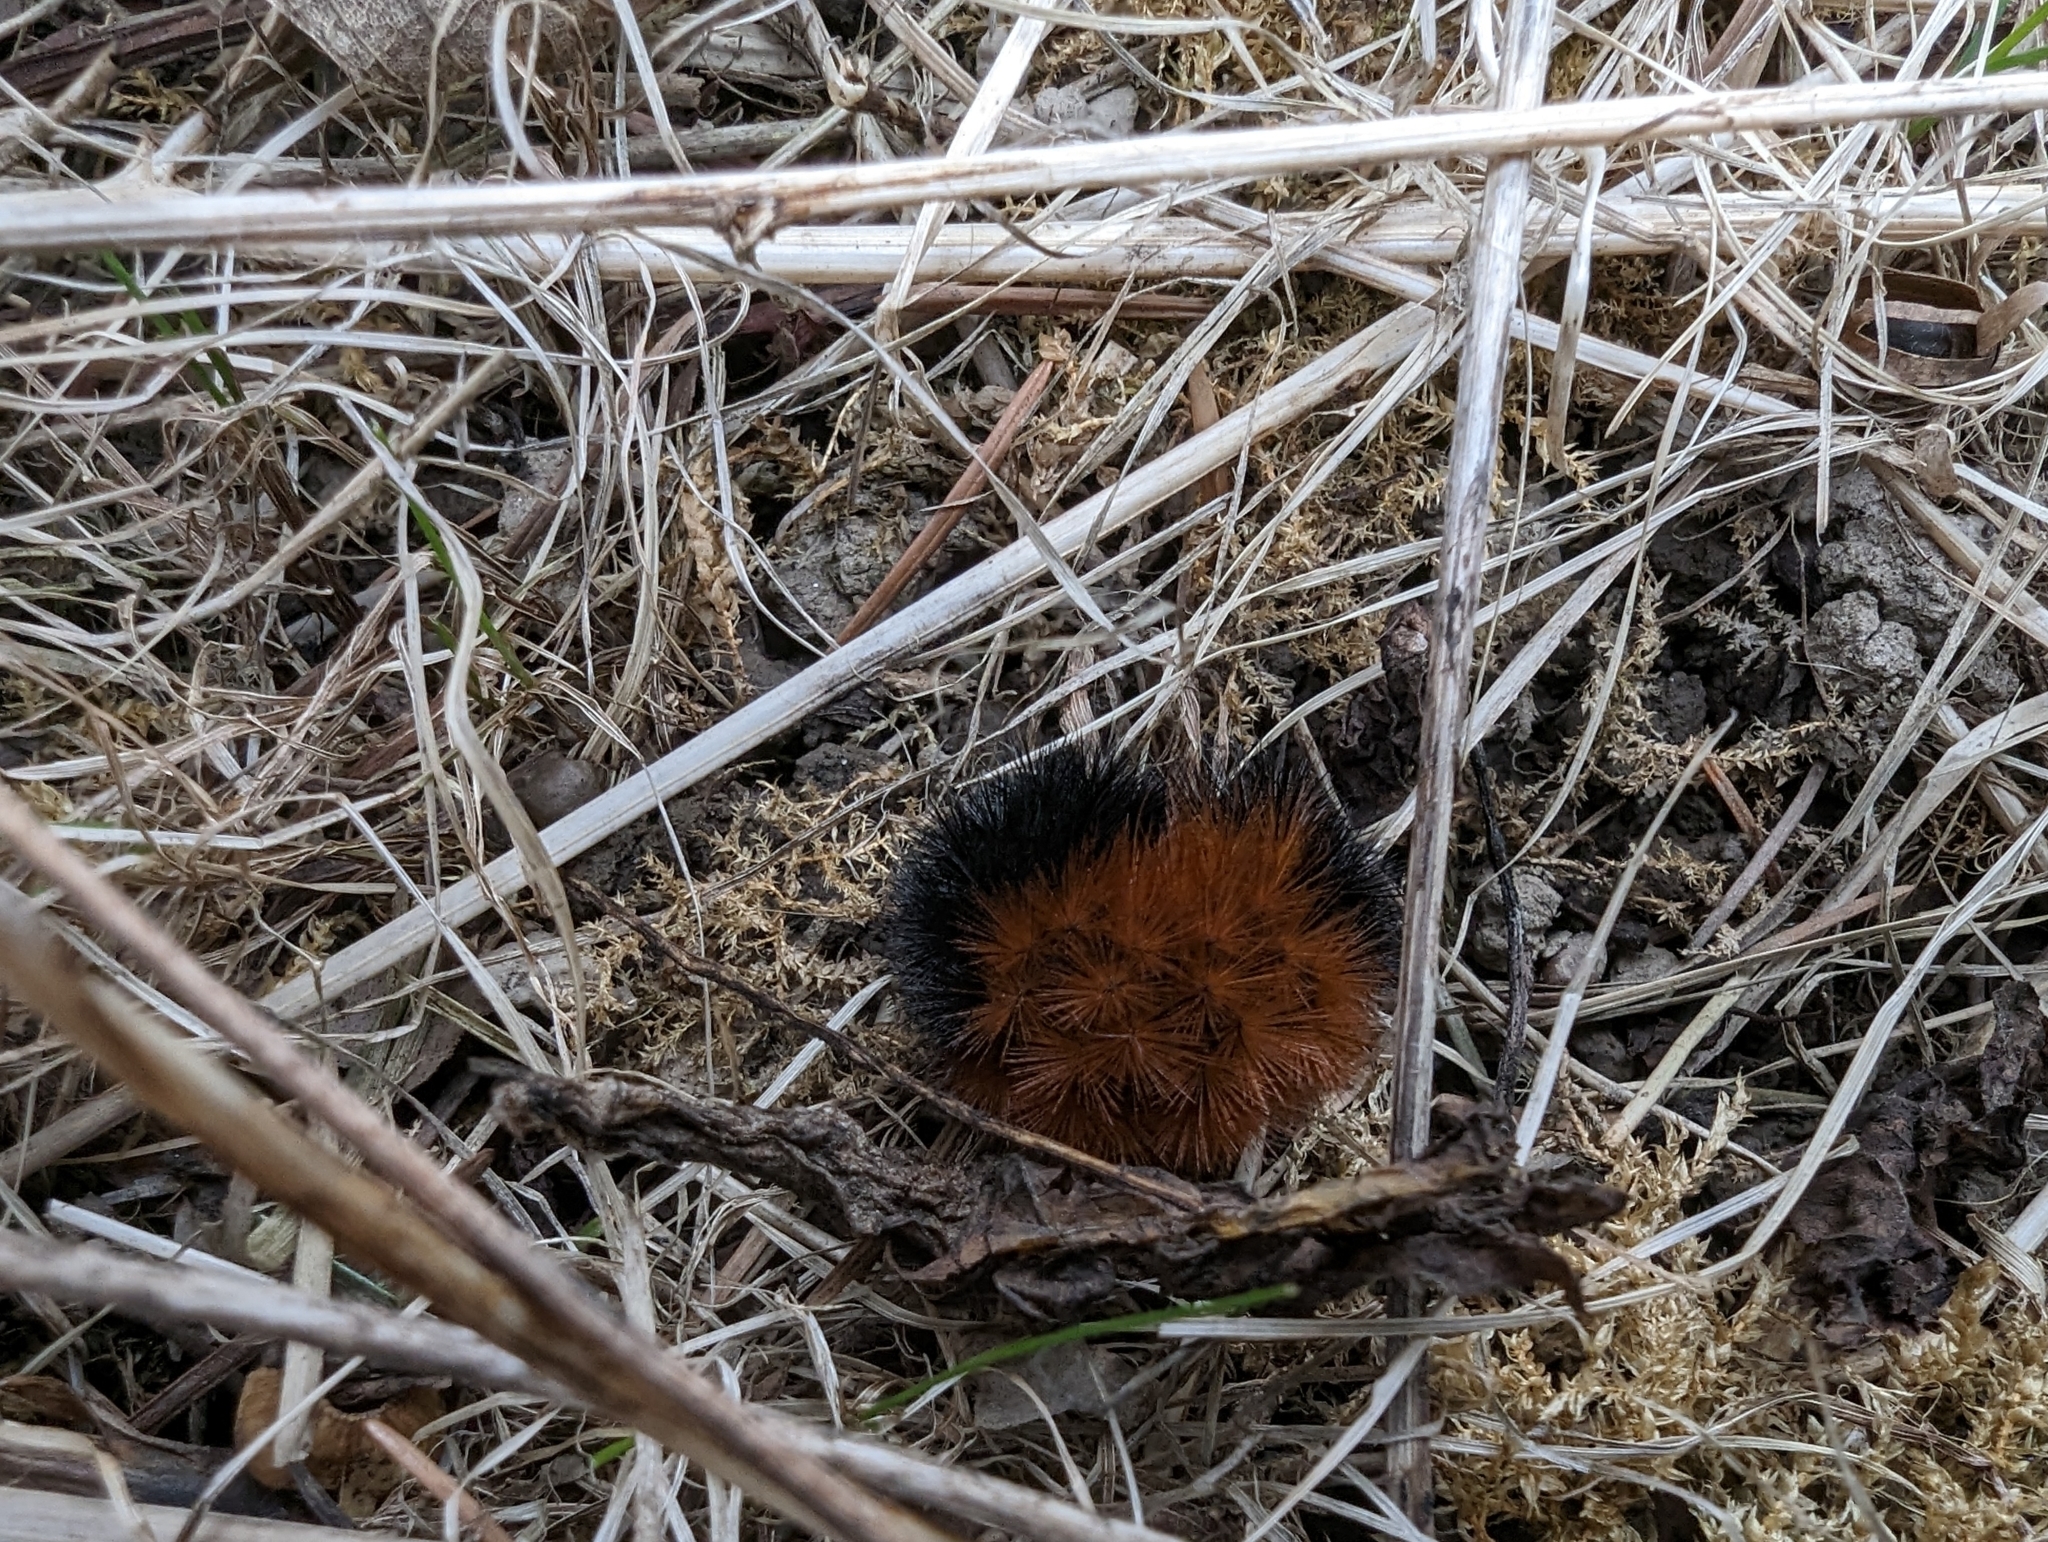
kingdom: Animalia
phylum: Arthropoda
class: Insecta
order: Lepidoptera
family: Erebidae
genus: Pyrrharctia
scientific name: Pyrrharctia isabella
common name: Isabella tiger moth
